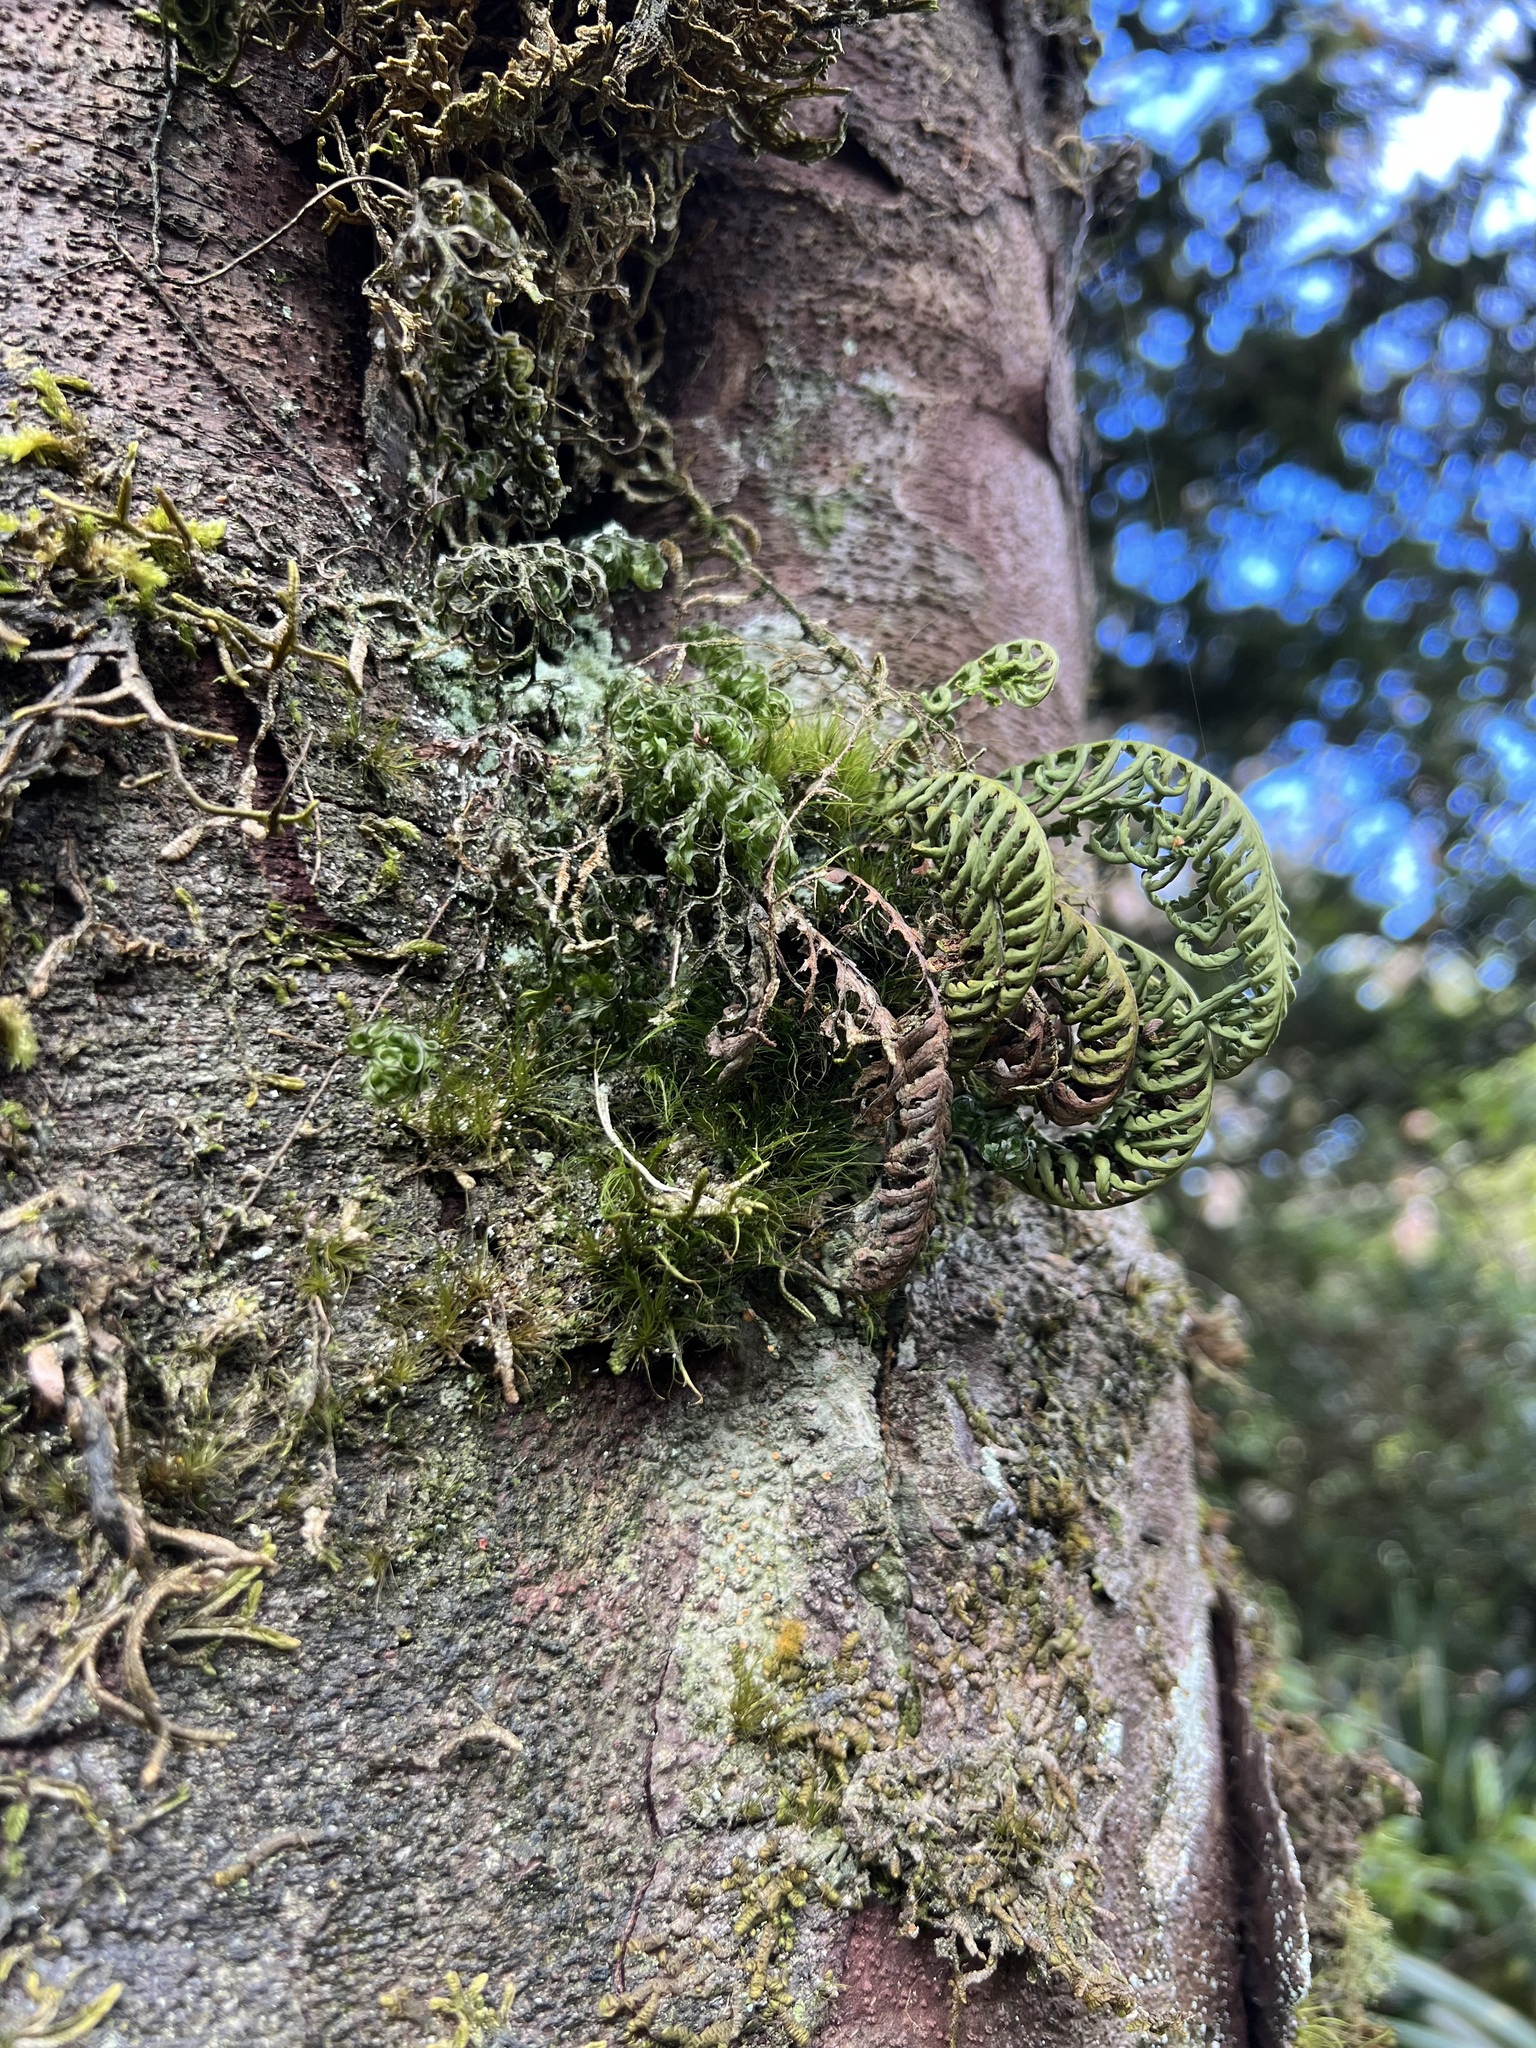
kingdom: Plantae
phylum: Tracheophyta
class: Polypodiopsida
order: Polypodiales
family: Polypodiaceae
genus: Notogrammitis
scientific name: Notogrammitis heterophylla
